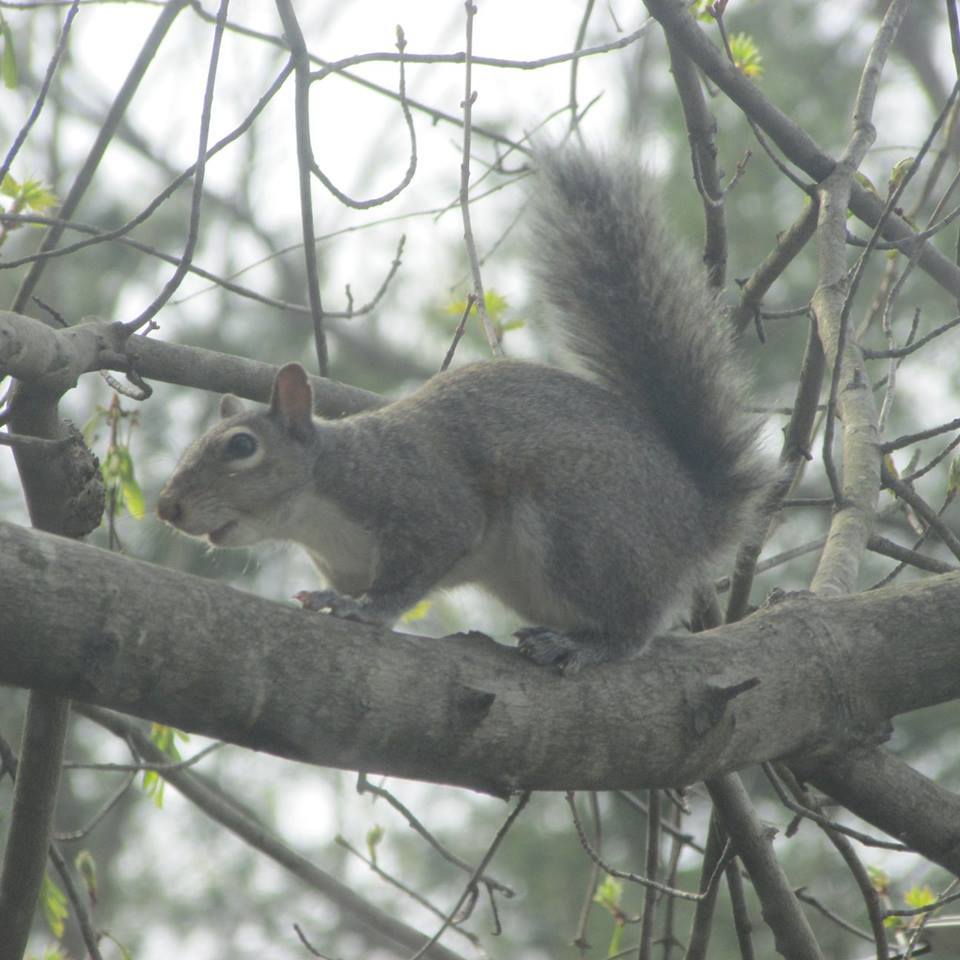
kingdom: Animalia
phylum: Chordata
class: Mammalia
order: Rodentia
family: Sciuridae
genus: Sciurus
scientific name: Sciurus carolinensis
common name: Eastern gray squirrel
